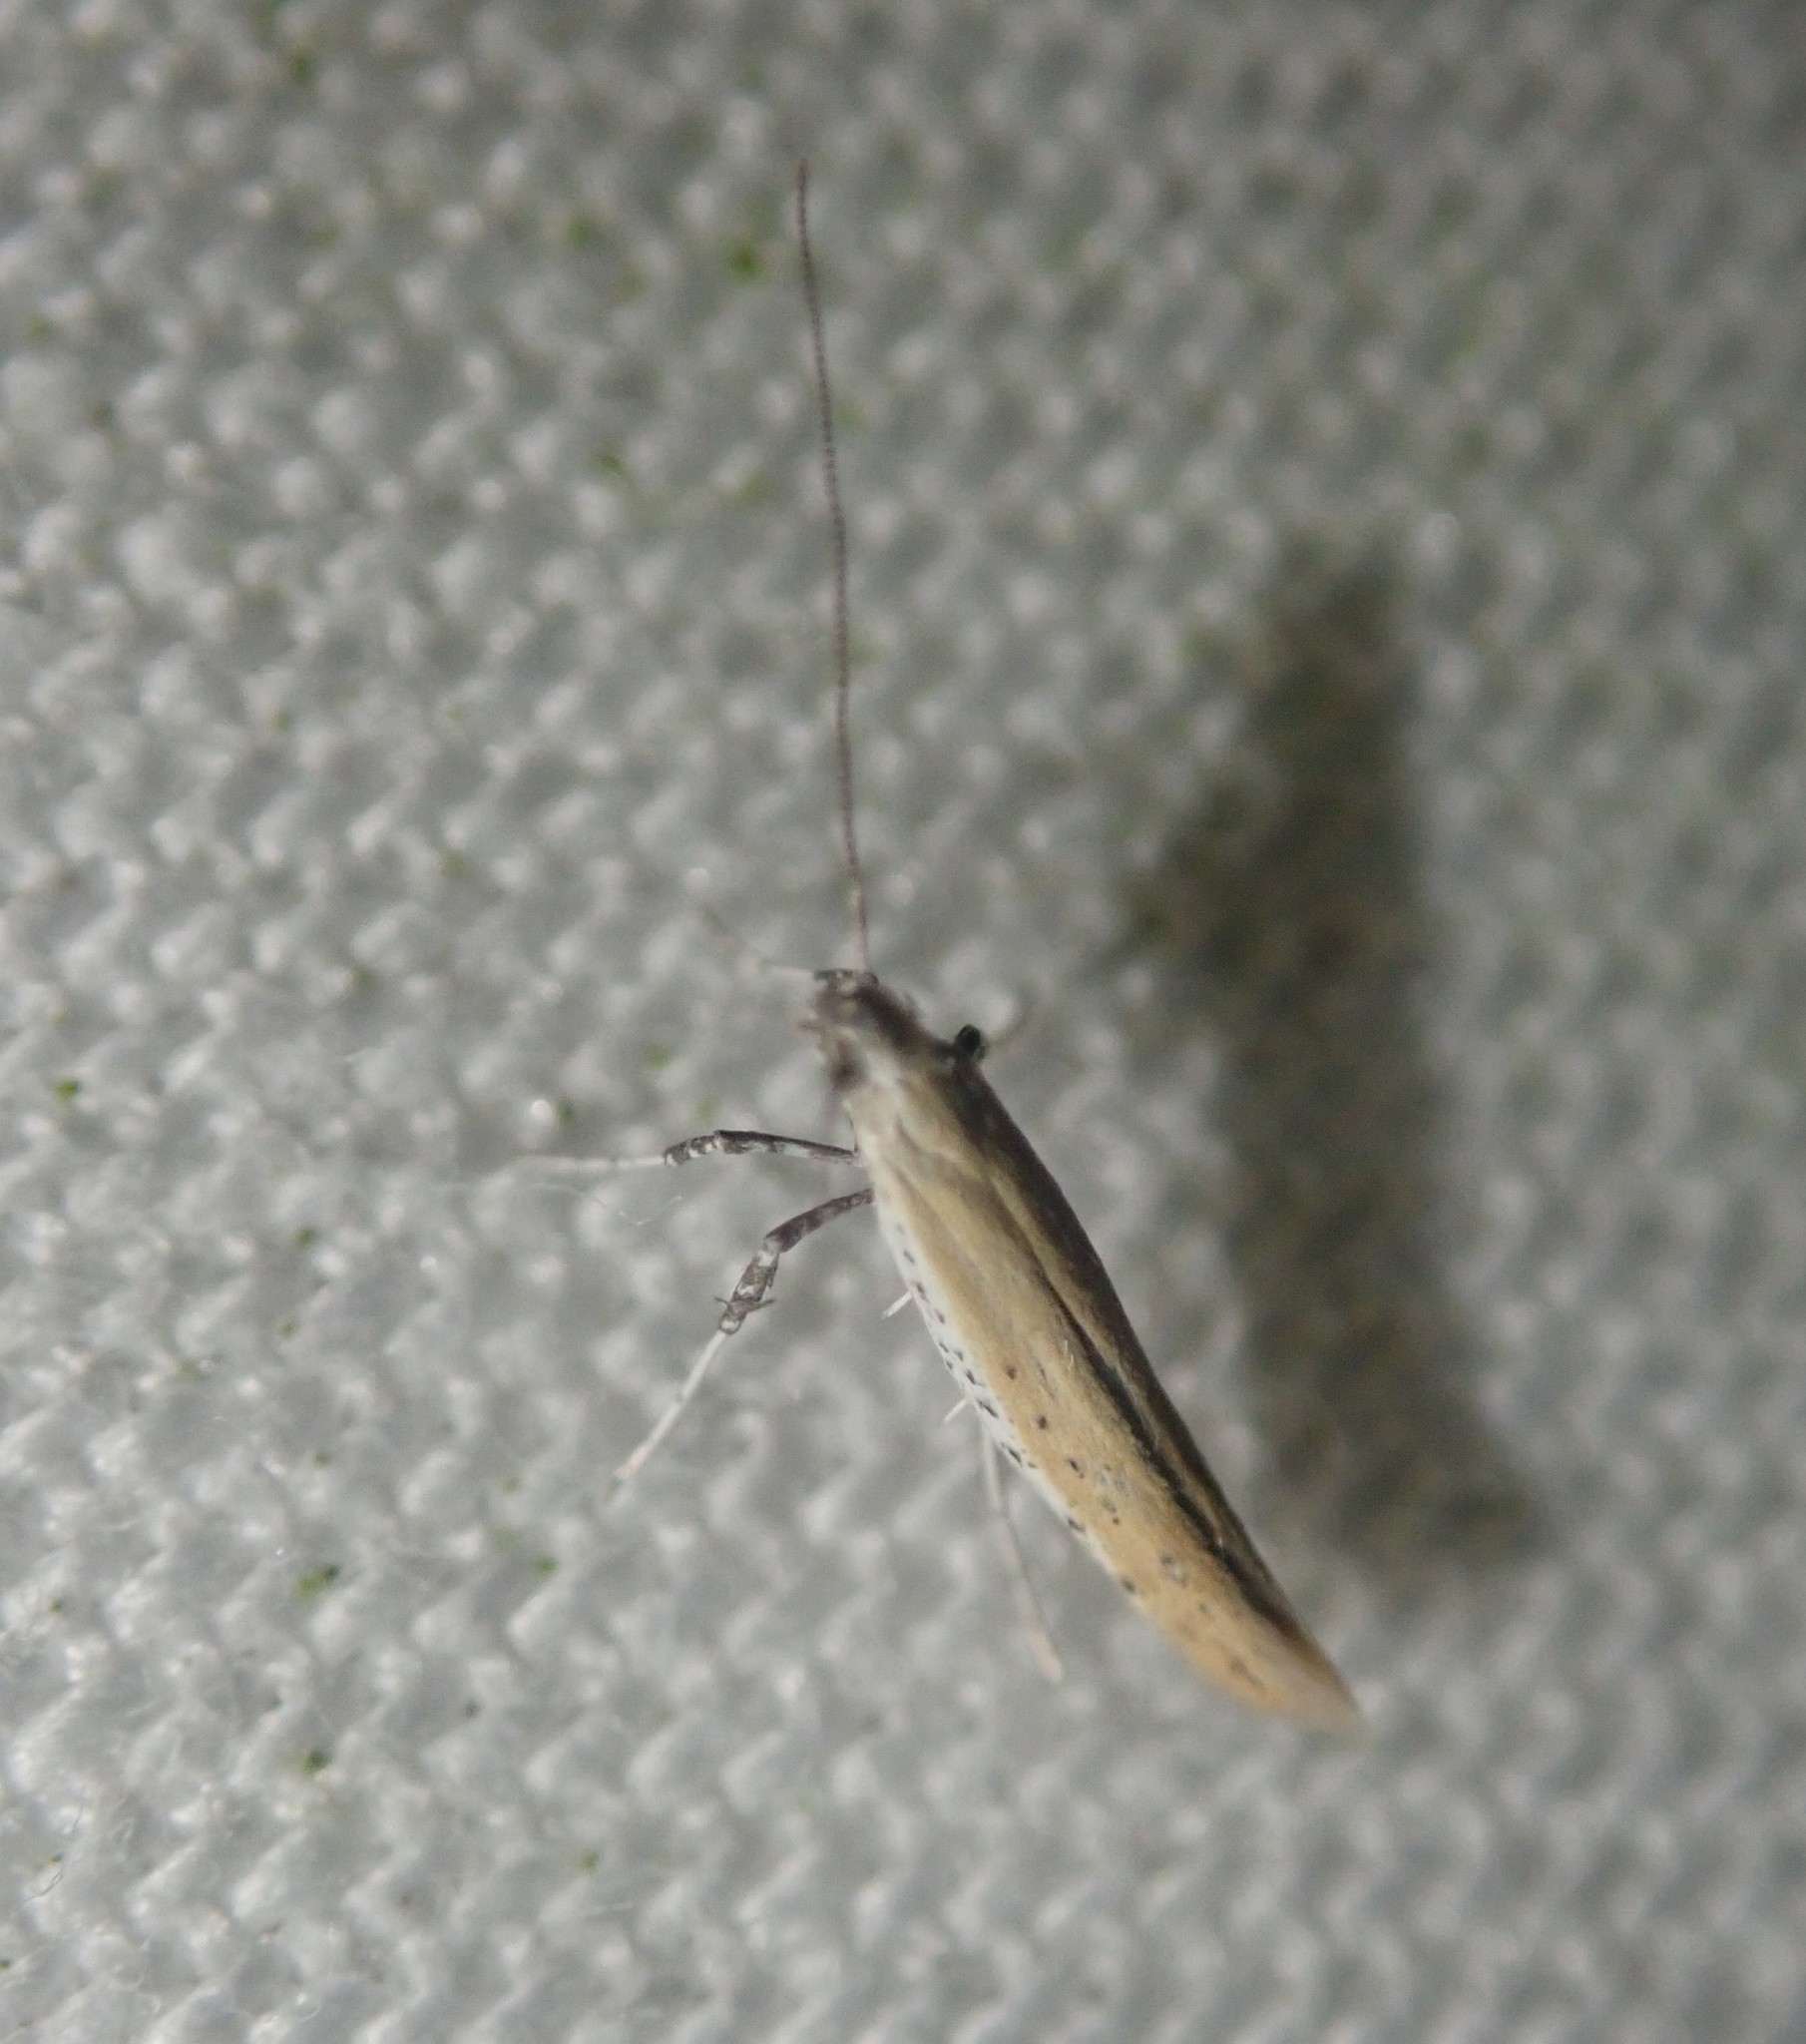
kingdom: Animalia
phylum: Arthropoda
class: Insecta
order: Lepidoptera
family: Gracillariidae
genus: Aspilapteryx
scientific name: Aspilapteryx tringipennella
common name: Ribwort slender
